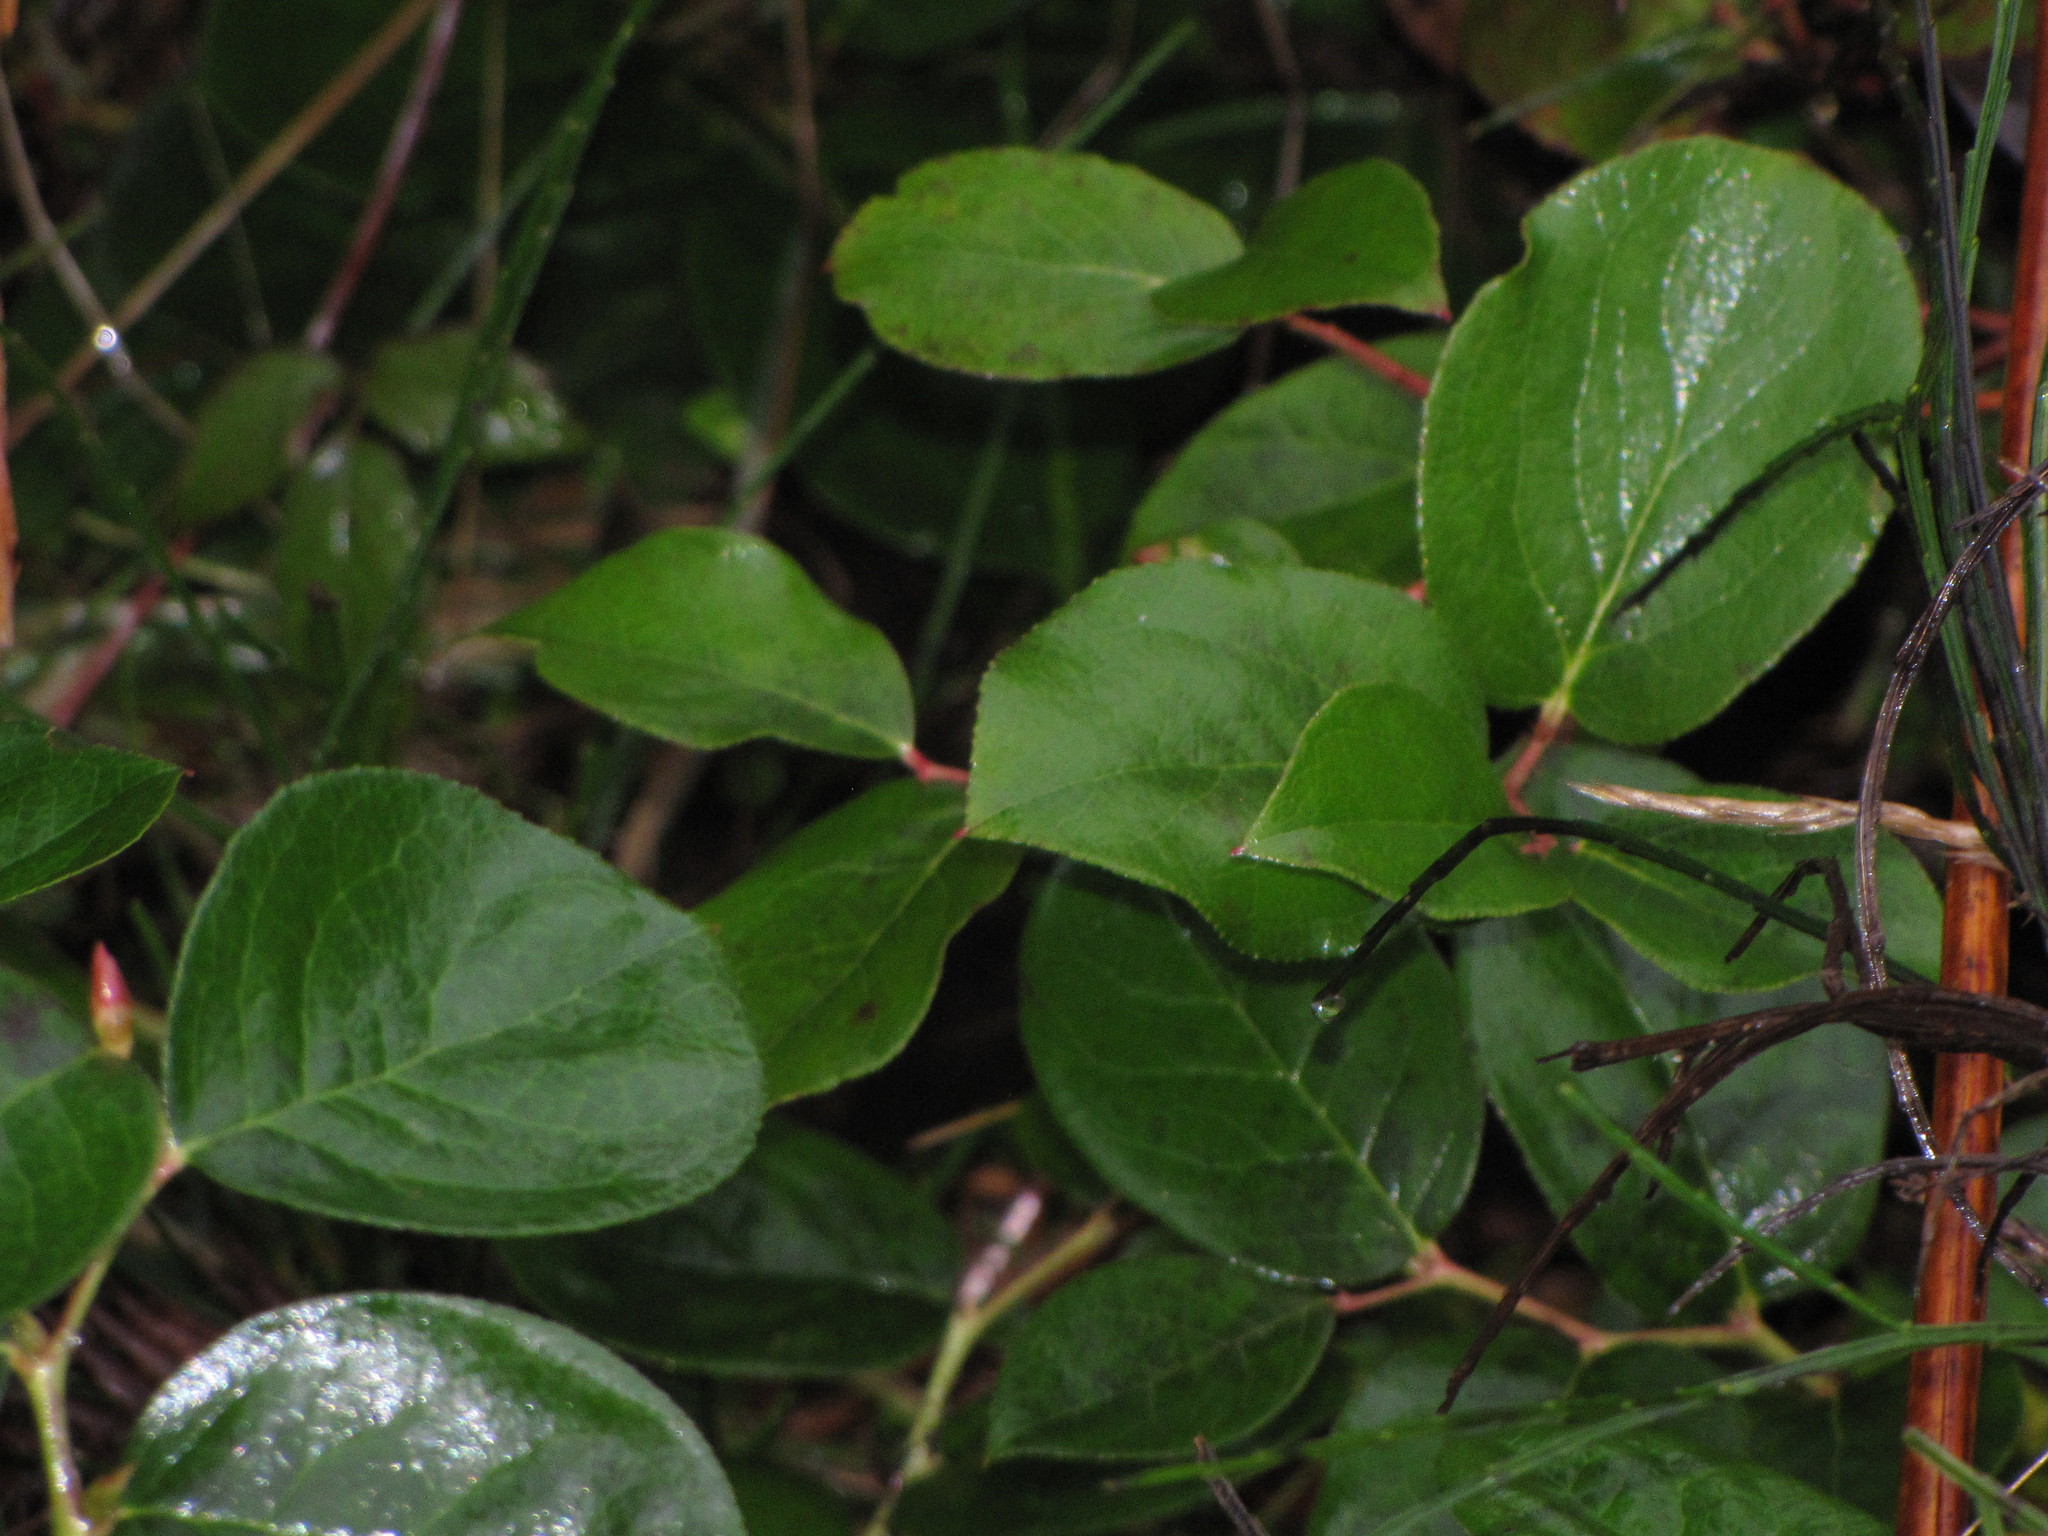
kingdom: Plantae
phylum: Tracheophyta
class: Magnoliopsida
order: Ericales
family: Ericaceae
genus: Gaultheria
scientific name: Gaultheria shallon
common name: Shallon
